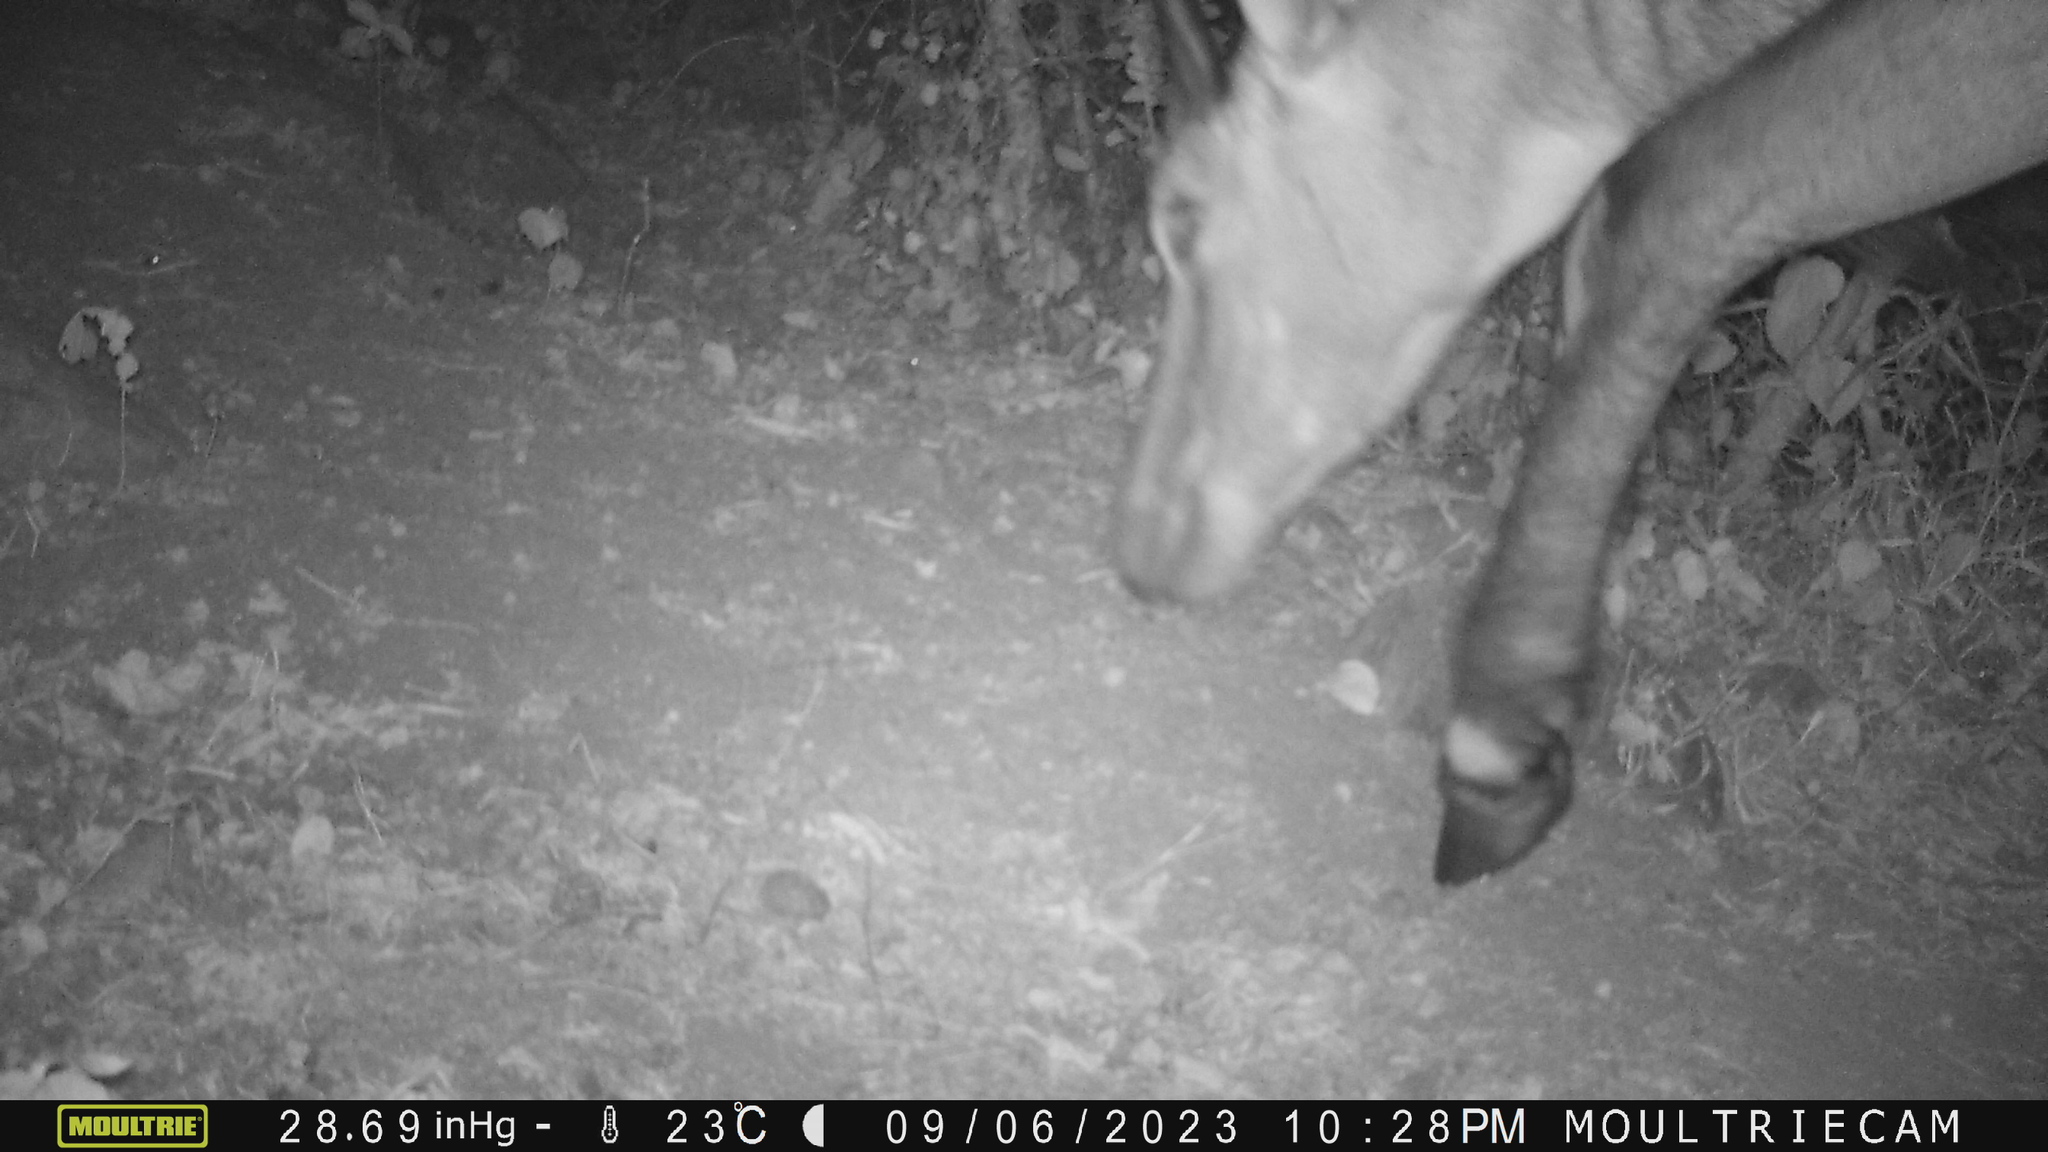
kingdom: Animalia
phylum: Chordata
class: Mammalia
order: Artiodactyla
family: Bovidae
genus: Boselaphus
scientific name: Boselaphus tragocamelus
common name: Nilgai
